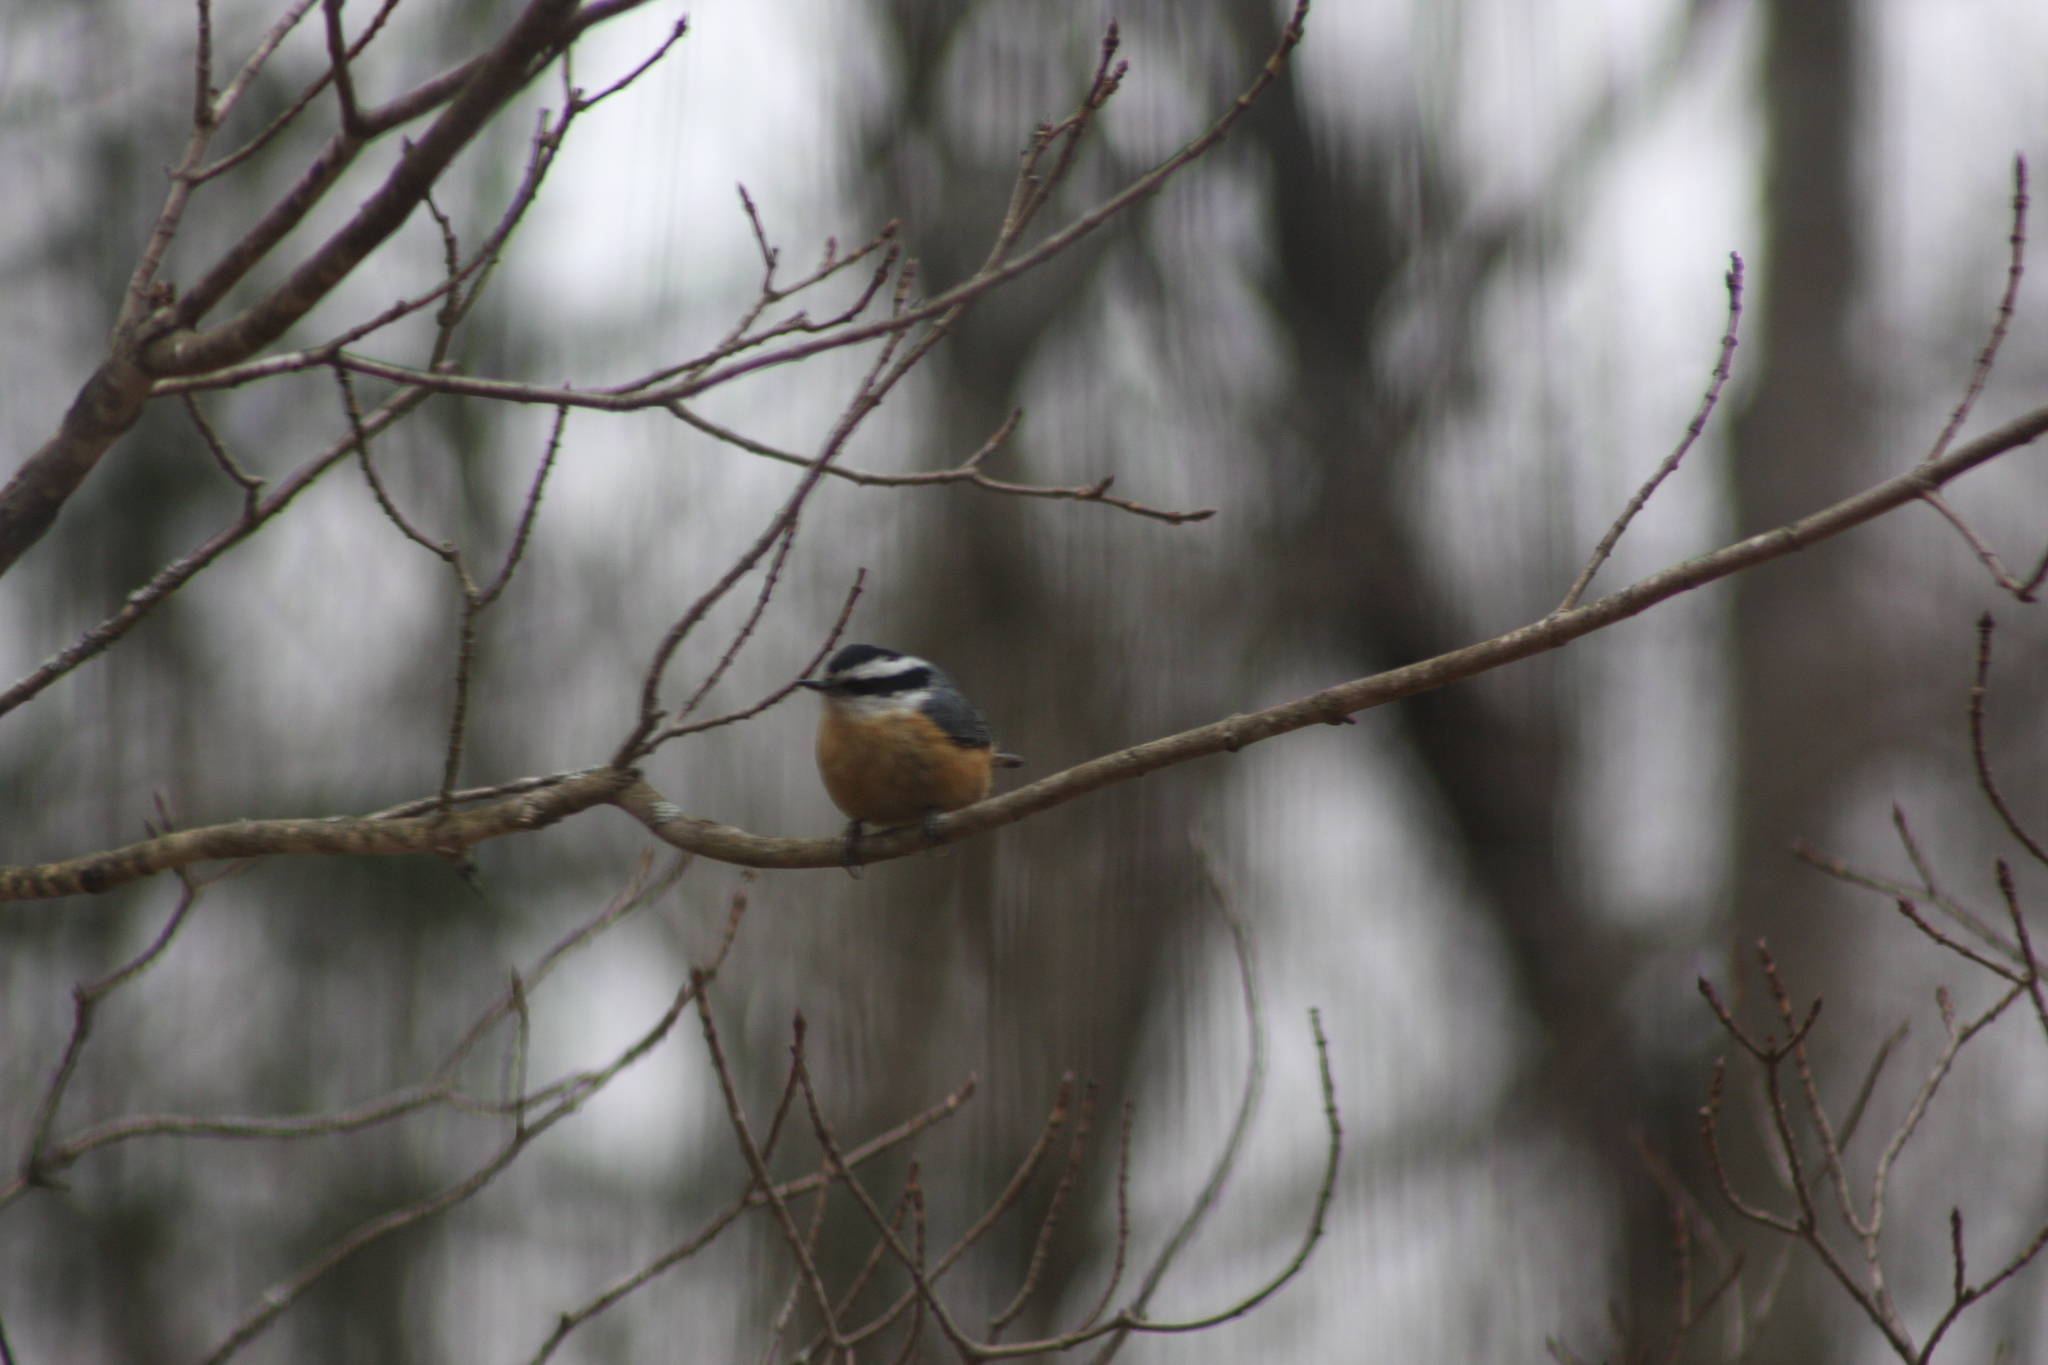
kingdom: Animalia
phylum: Chordata
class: Aves
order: Passeriformes
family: Sittidae
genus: Sitta
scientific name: Sitta canadensis
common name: Red-breasted nuthatch
